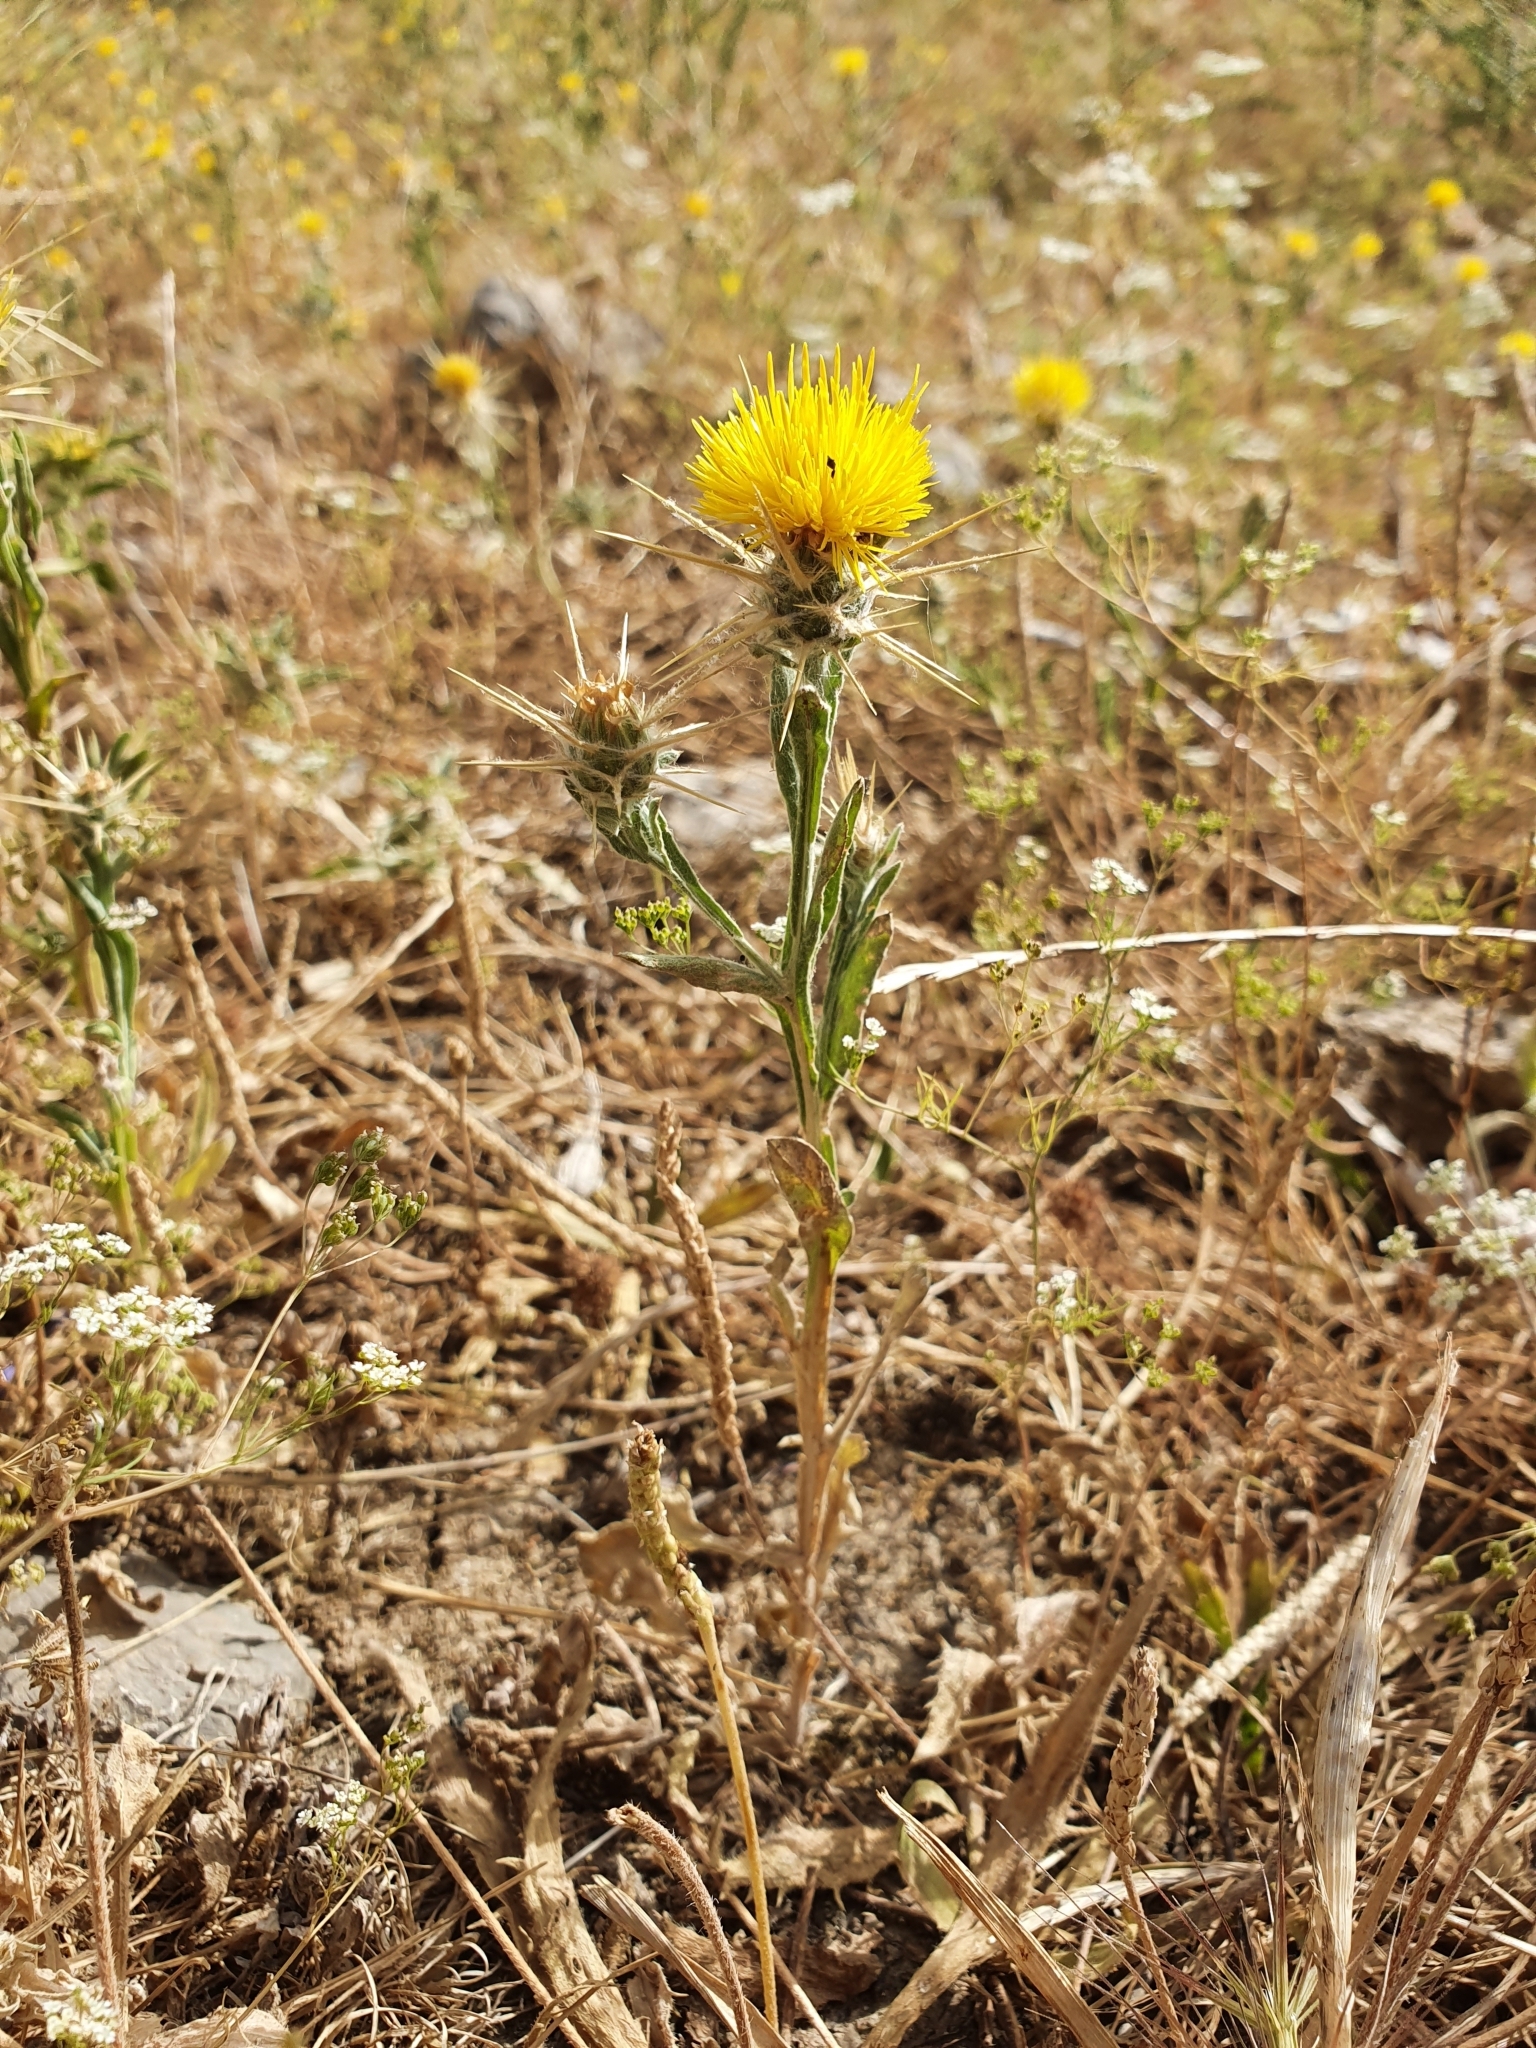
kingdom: Plantae
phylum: Tracheophyta
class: Magnoliopsida
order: Asterales
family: Asteraceae
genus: Centaurea
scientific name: Centaurea solstitialis
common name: Yellow star-thistle
